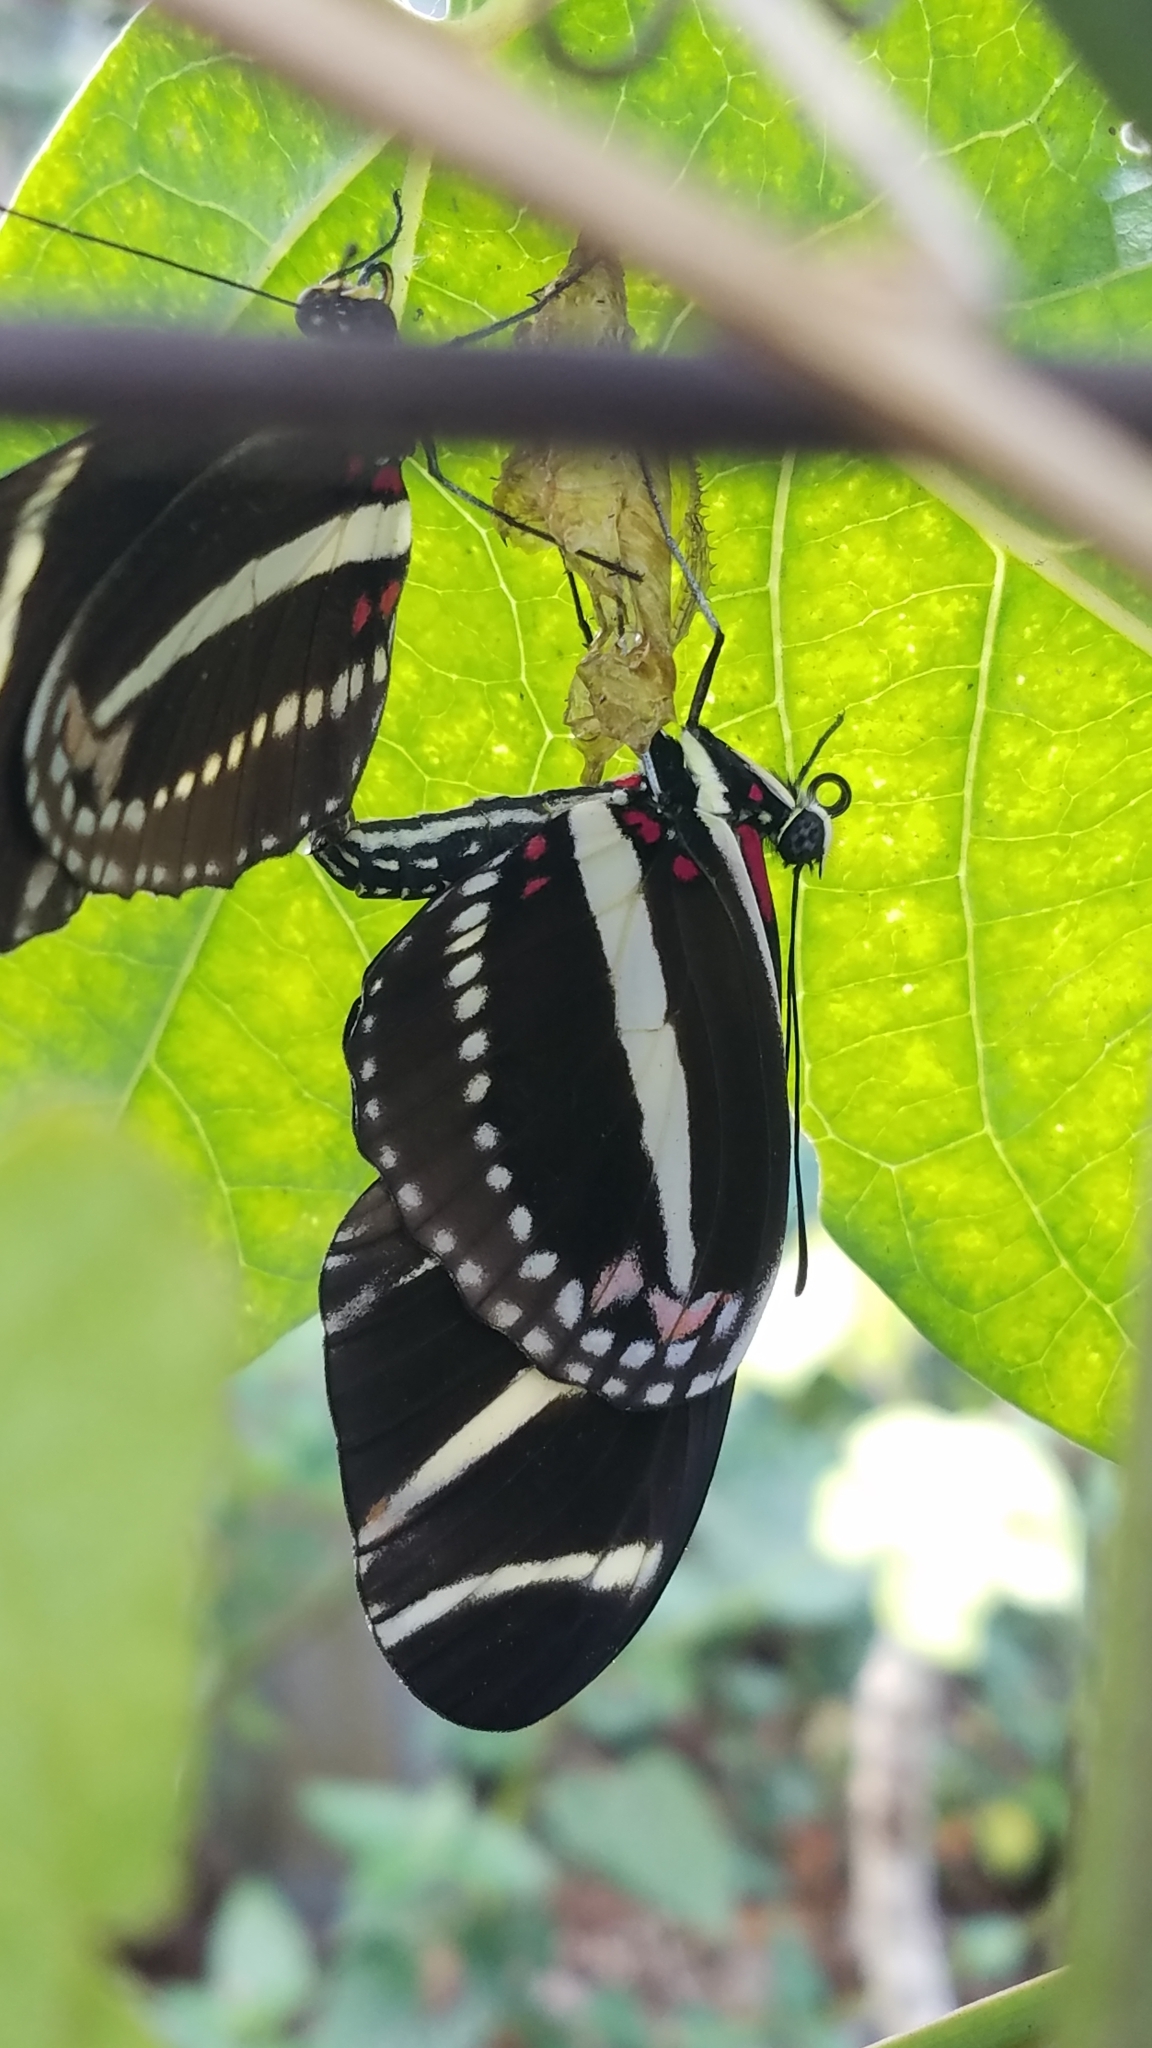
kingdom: Animalia
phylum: Arthropoda
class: Insecta
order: Lepidoptera
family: Nymphalidae
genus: Heliconius
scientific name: Heliconius charithonia
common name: Zebra long wing
